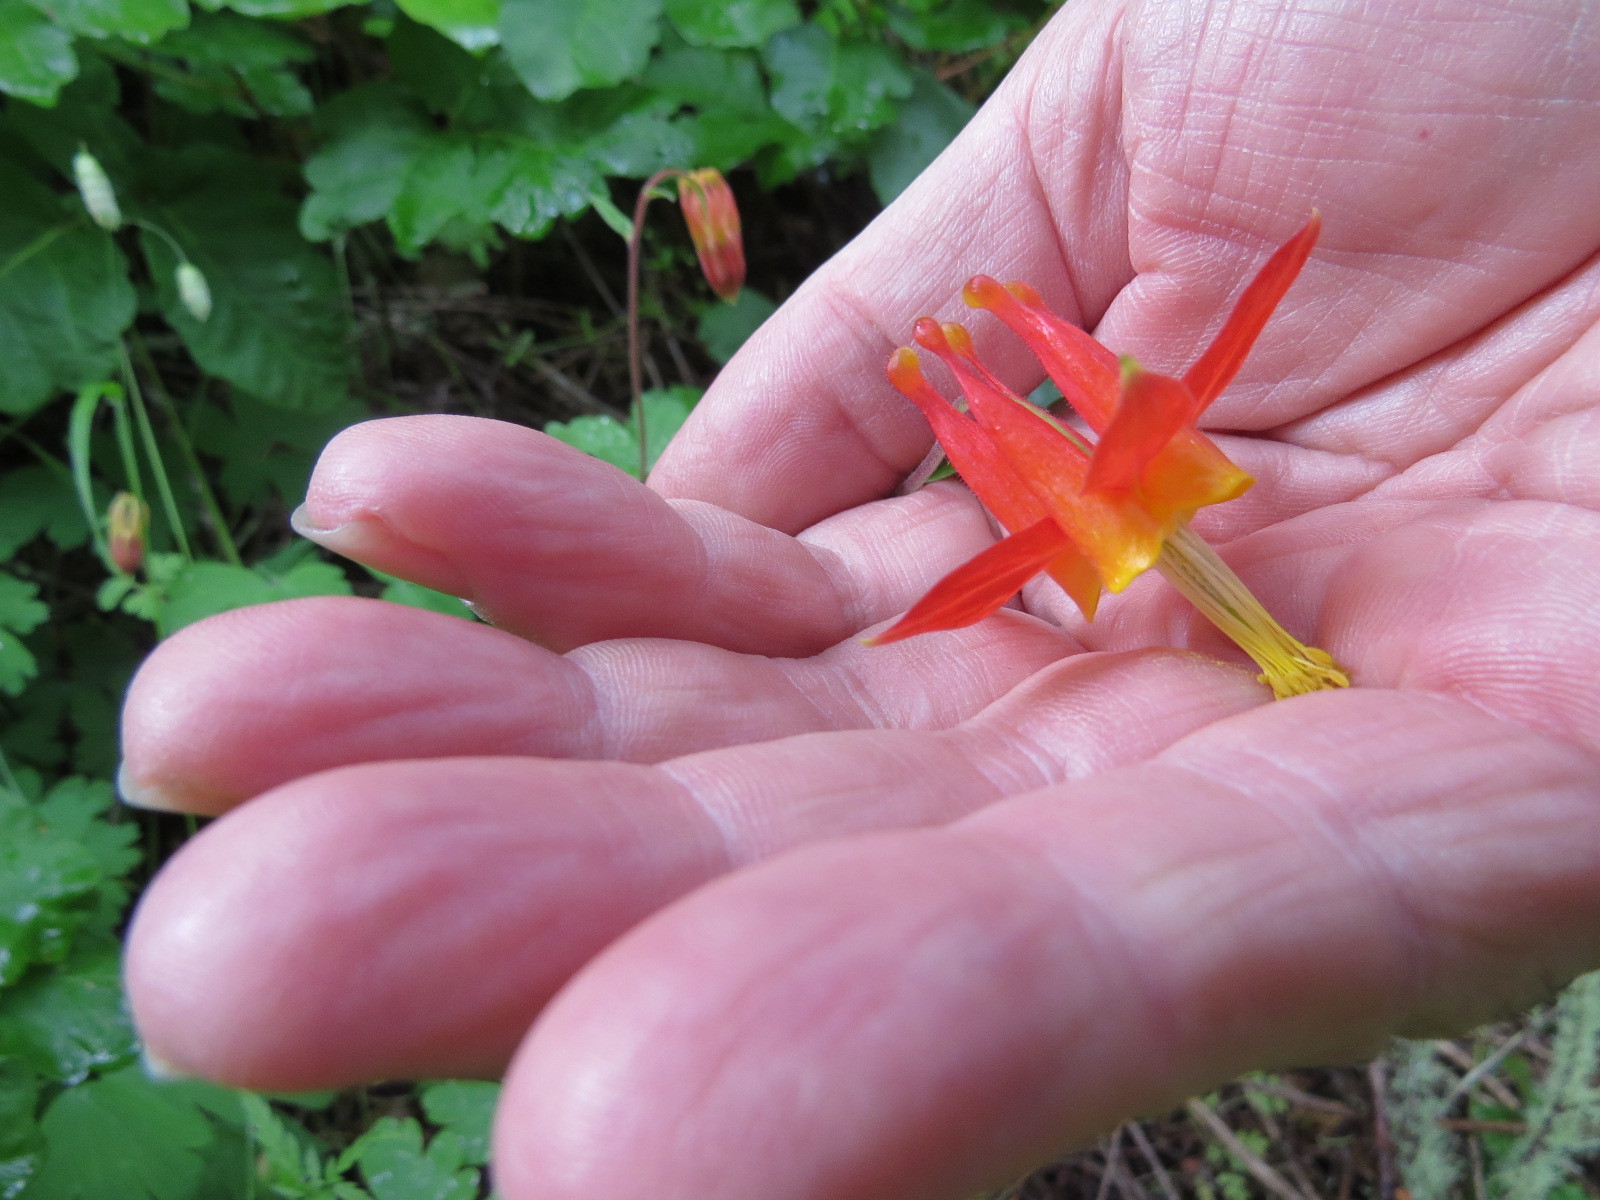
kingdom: Plantae
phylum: Tracheophyta
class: Magnoliopsida
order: Ranunculales
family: Ranunculaceae
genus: Aquilegia
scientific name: Aquilegia formosa
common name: Sitka columbine
